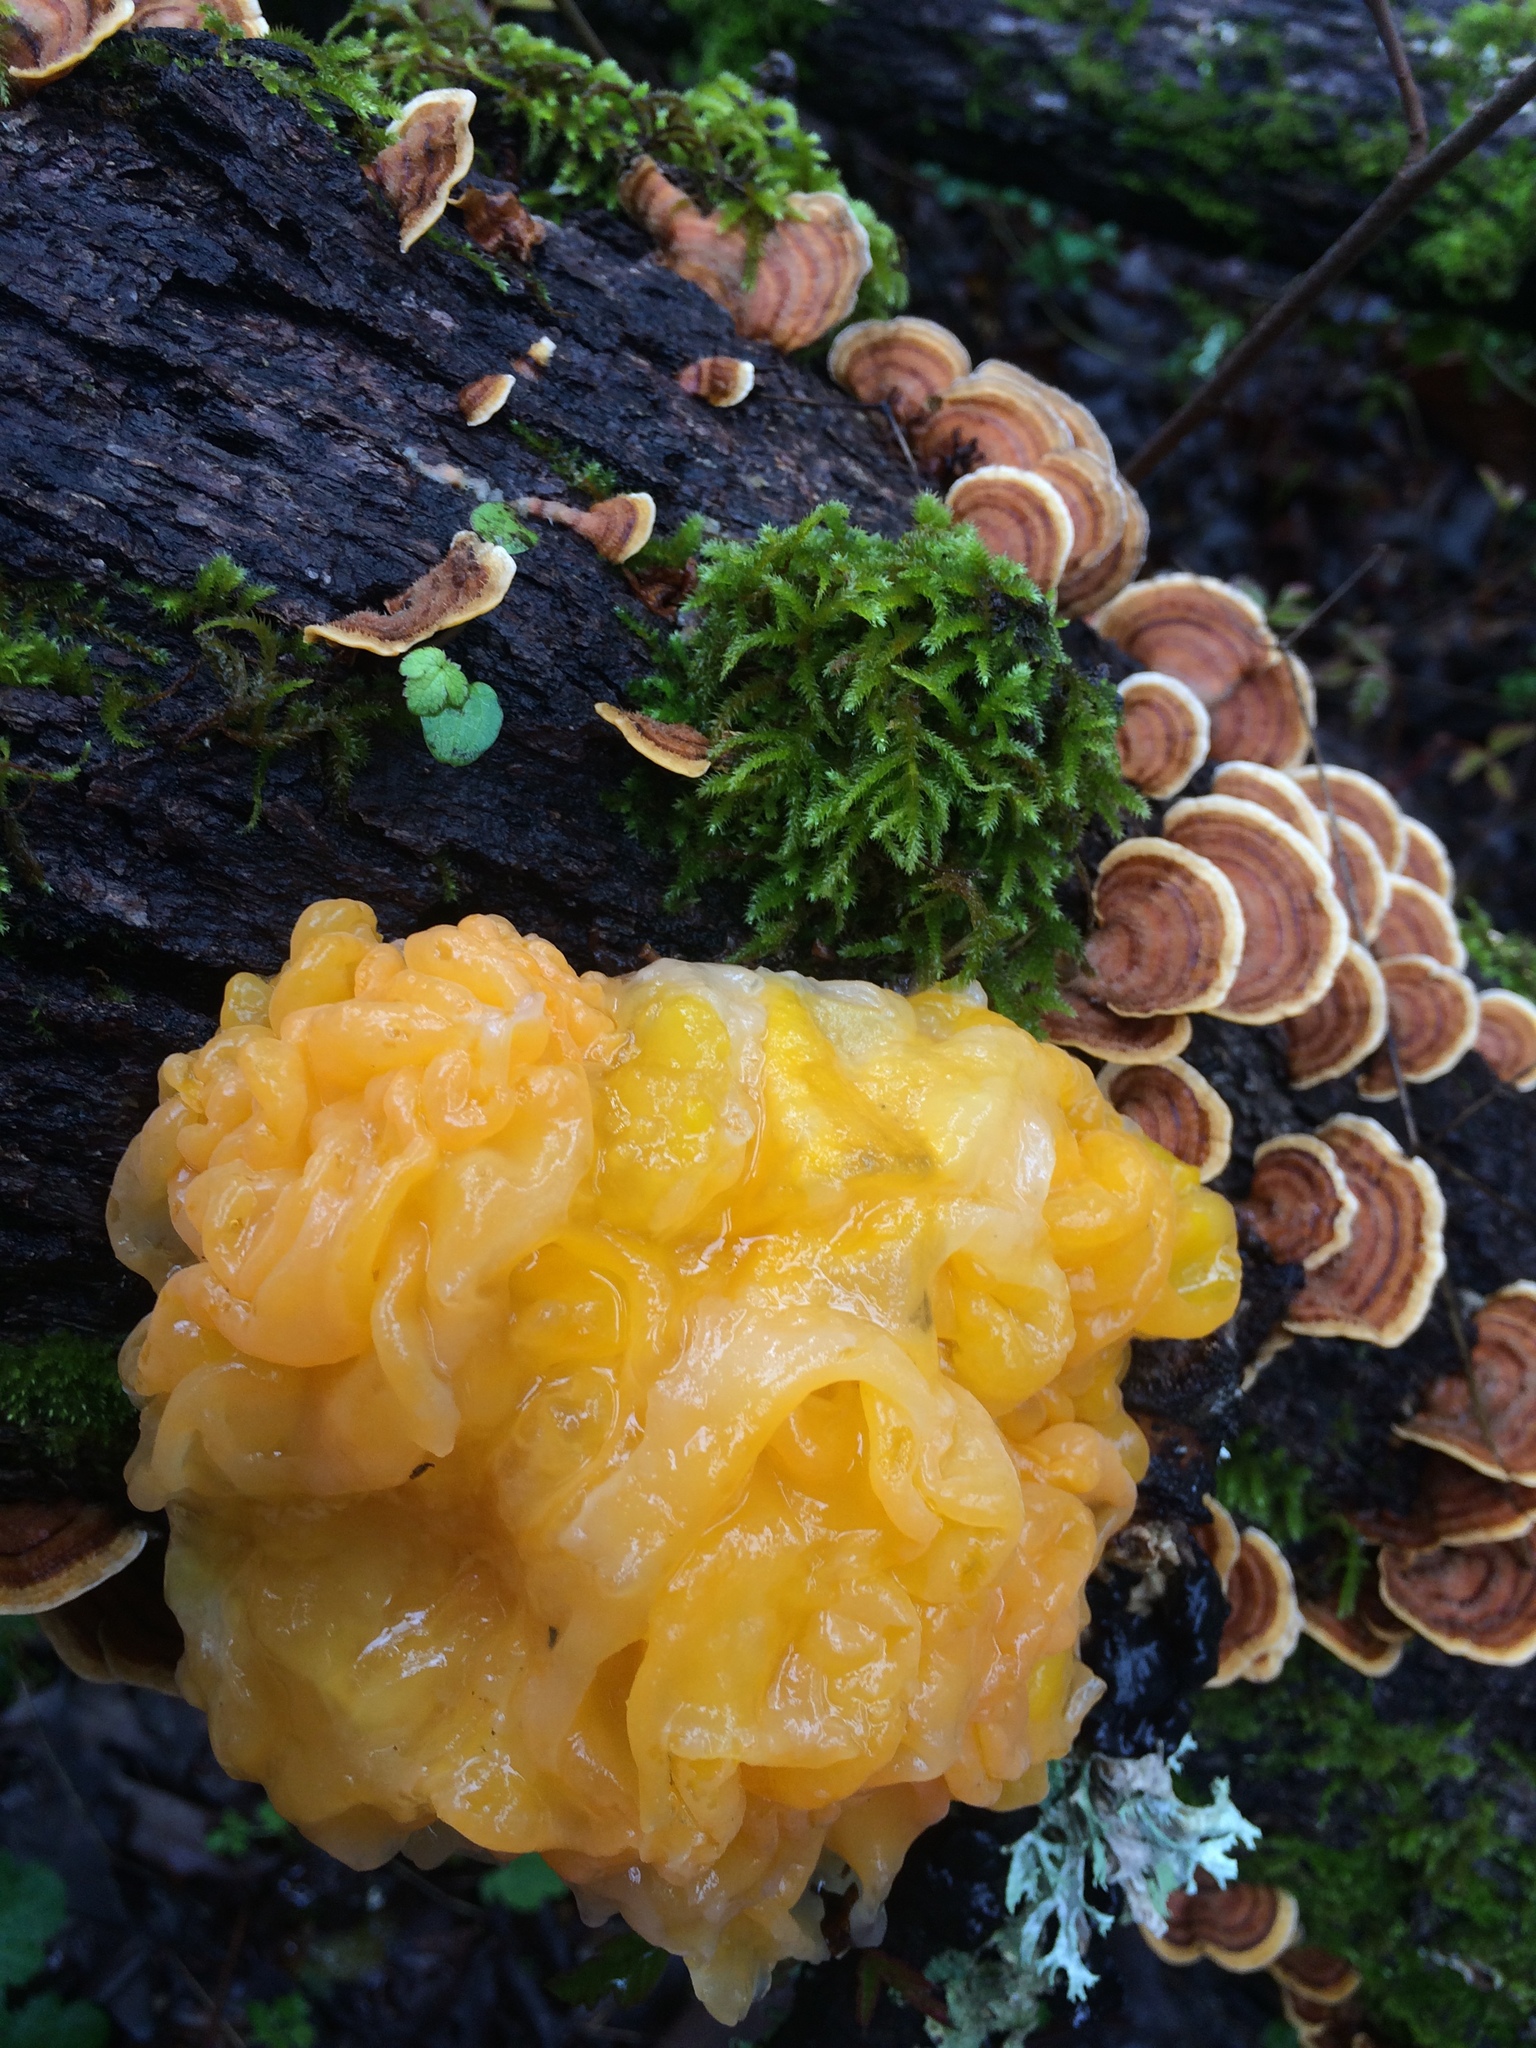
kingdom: Fungi
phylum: Basidiomycota
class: Tremellomycetes
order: Tremellales
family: Naemateliaceae
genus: Naematelia
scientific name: Naematelia aurantia
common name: Golden ear
